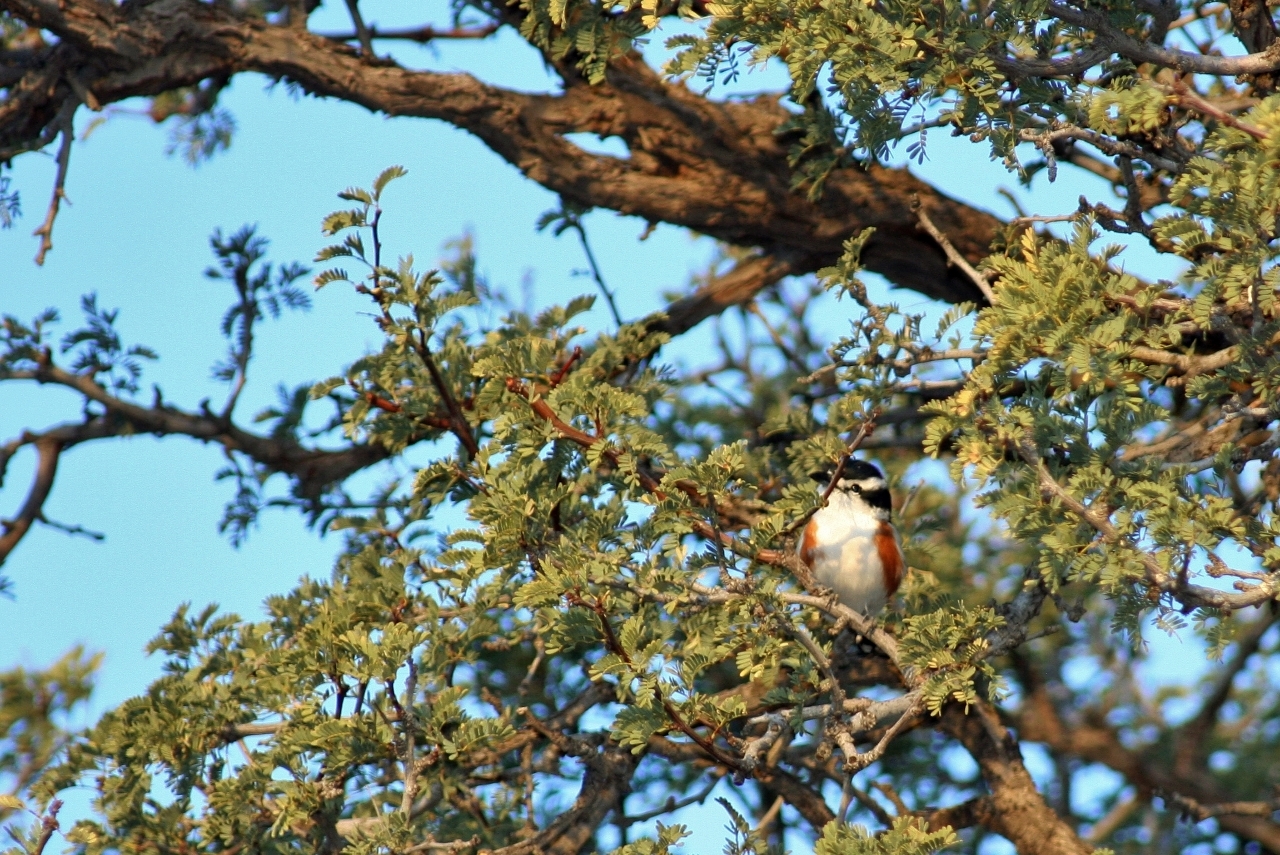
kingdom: Animalia
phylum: Chordata
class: Aves
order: Passeriformes
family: Malaconotidae
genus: Nilaus
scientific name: Nilaus afer
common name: Brubru
